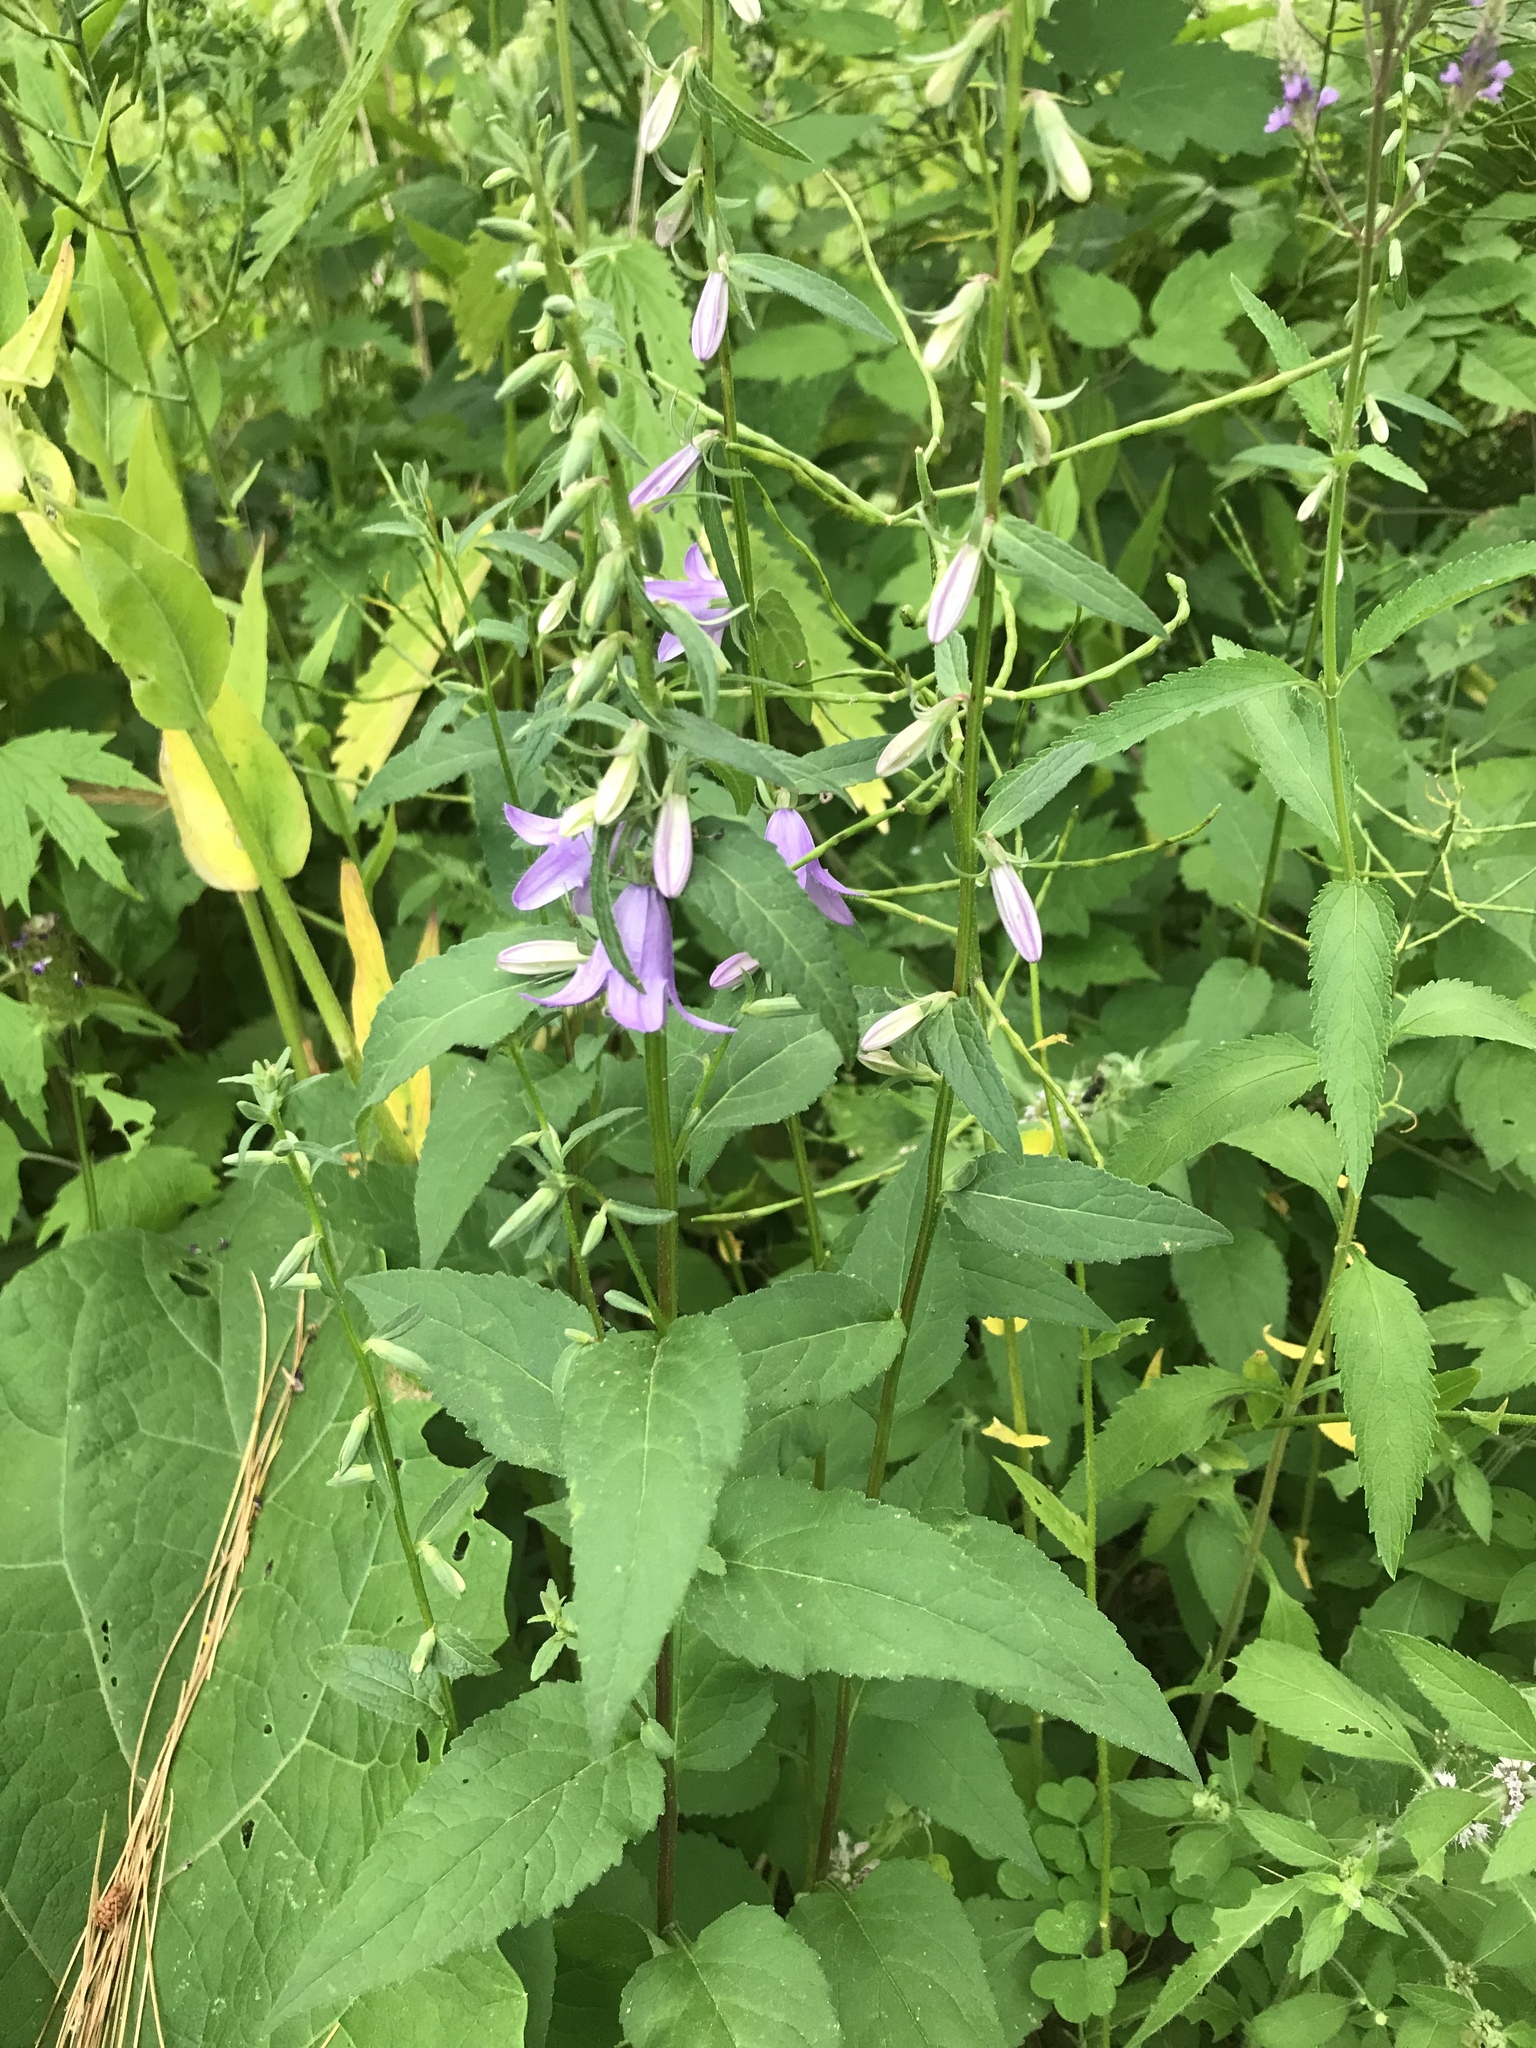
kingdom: Plantae
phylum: Tracheophyta
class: Magnoliopsida
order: Asterales
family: Campanulaceae
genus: Campanula
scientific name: Campanula rapunculoides
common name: Creeping bellflower
